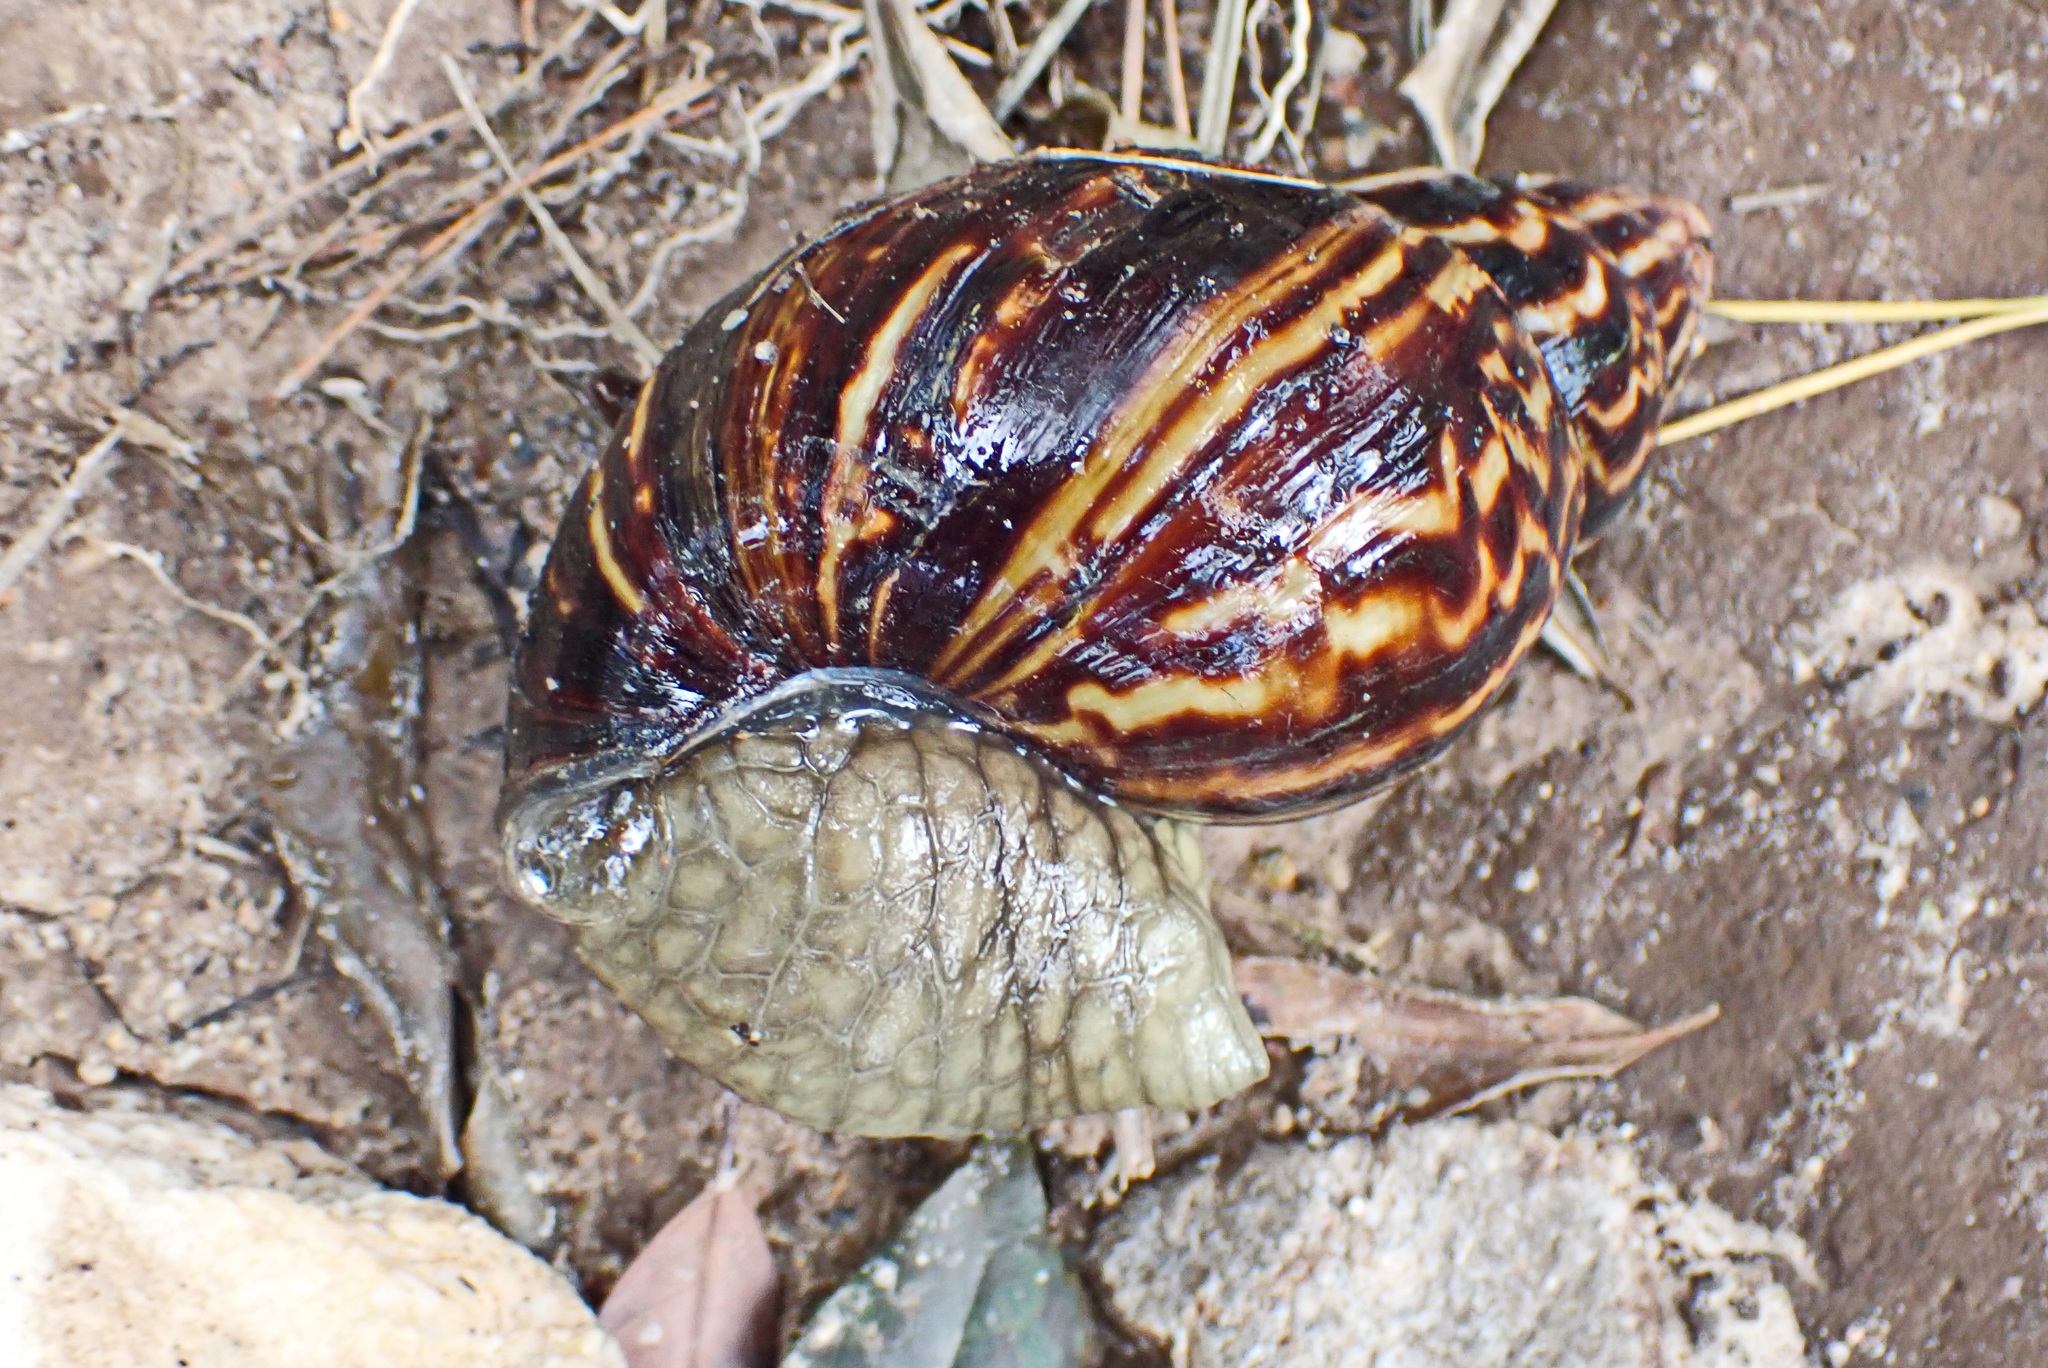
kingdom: Animalia
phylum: Mollusca
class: Gastropoda
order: Stylommatophora
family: Achatinidae
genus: Cochlitoma
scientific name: Cochlitoma zebra
